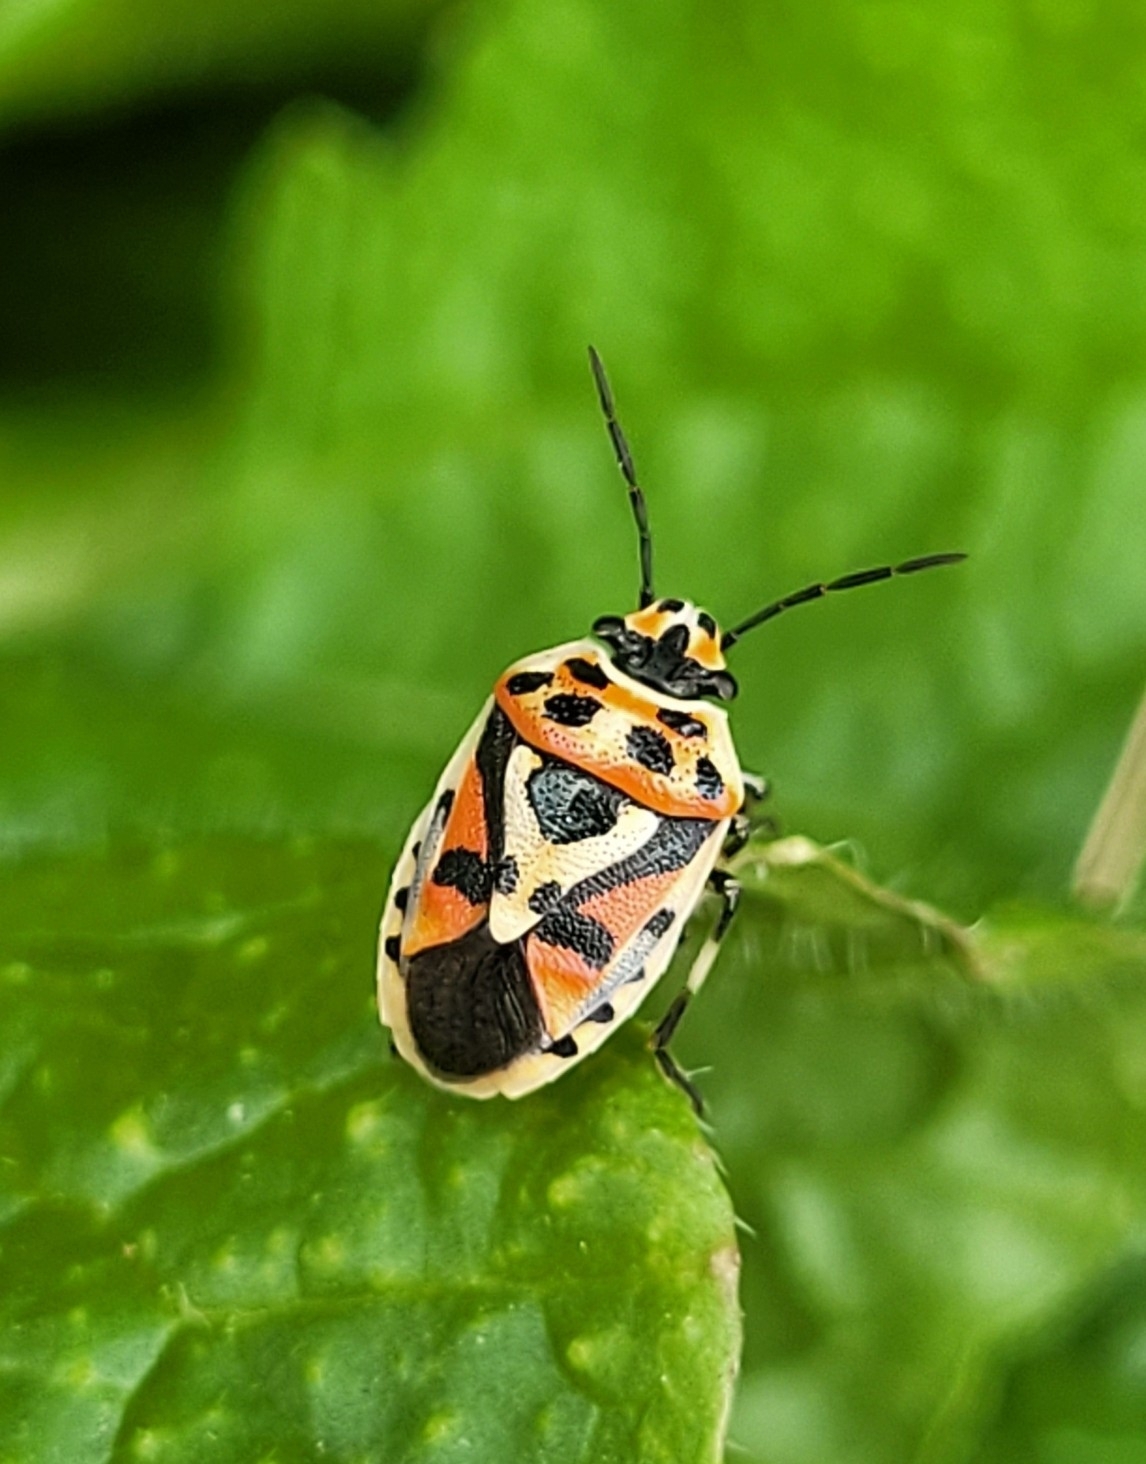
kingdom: Animalia
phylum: Arthropoda
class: Insecta
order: Hemiptera
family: Pentatomidae
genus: Eurydema
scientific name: Eurydema ornata
